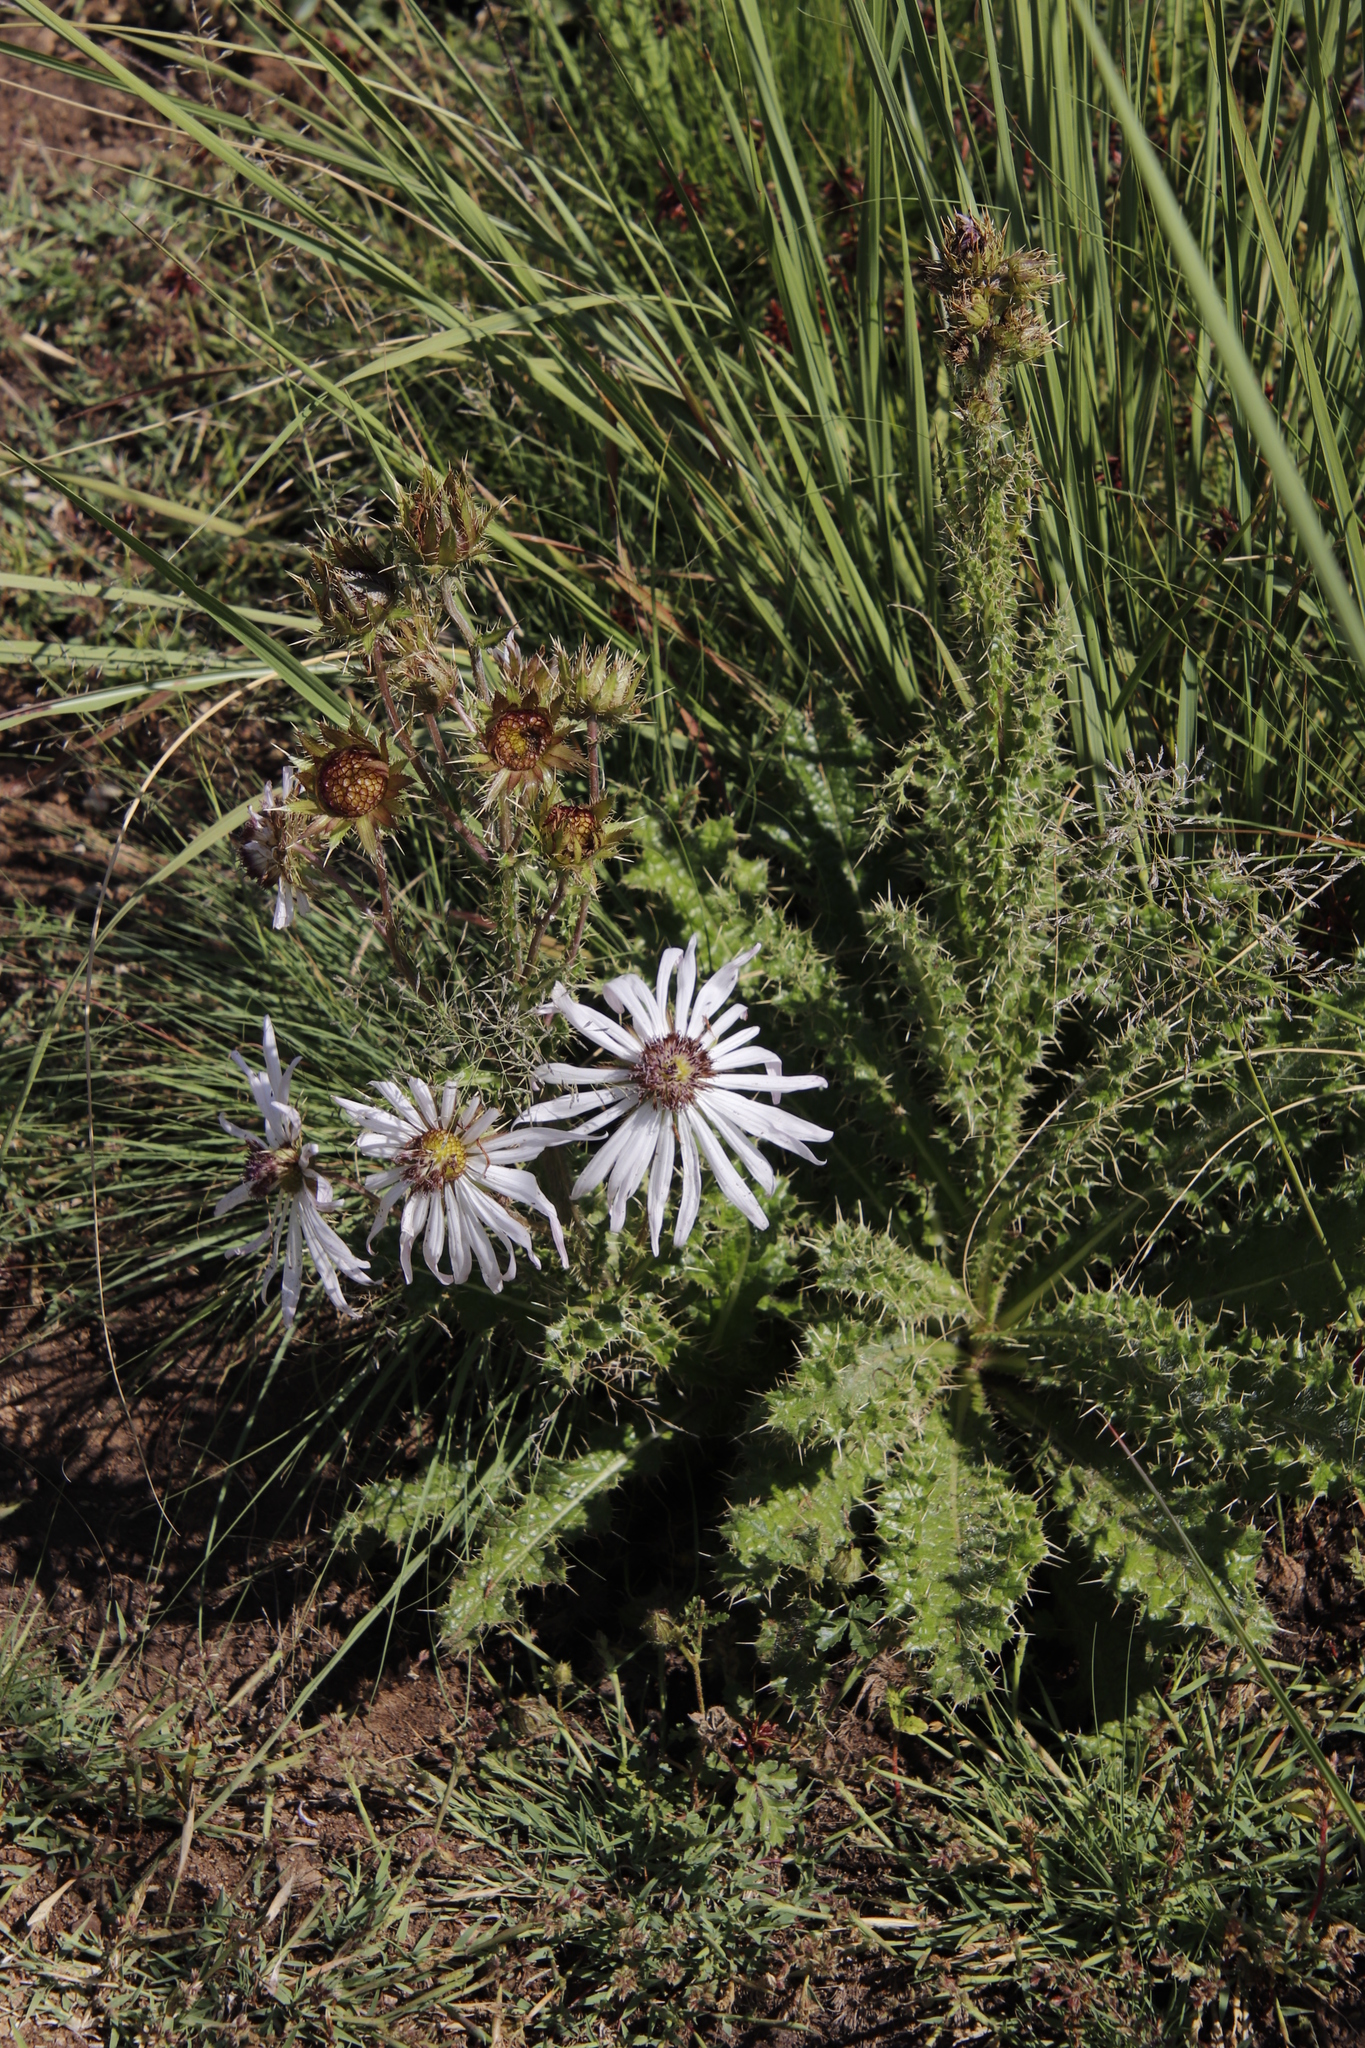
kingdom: Plantae
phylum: Tracheophyta
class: Magnoliopsida
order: Asterales
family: Asteraceae
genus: Berkheya
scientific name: Berkheya purpurea
